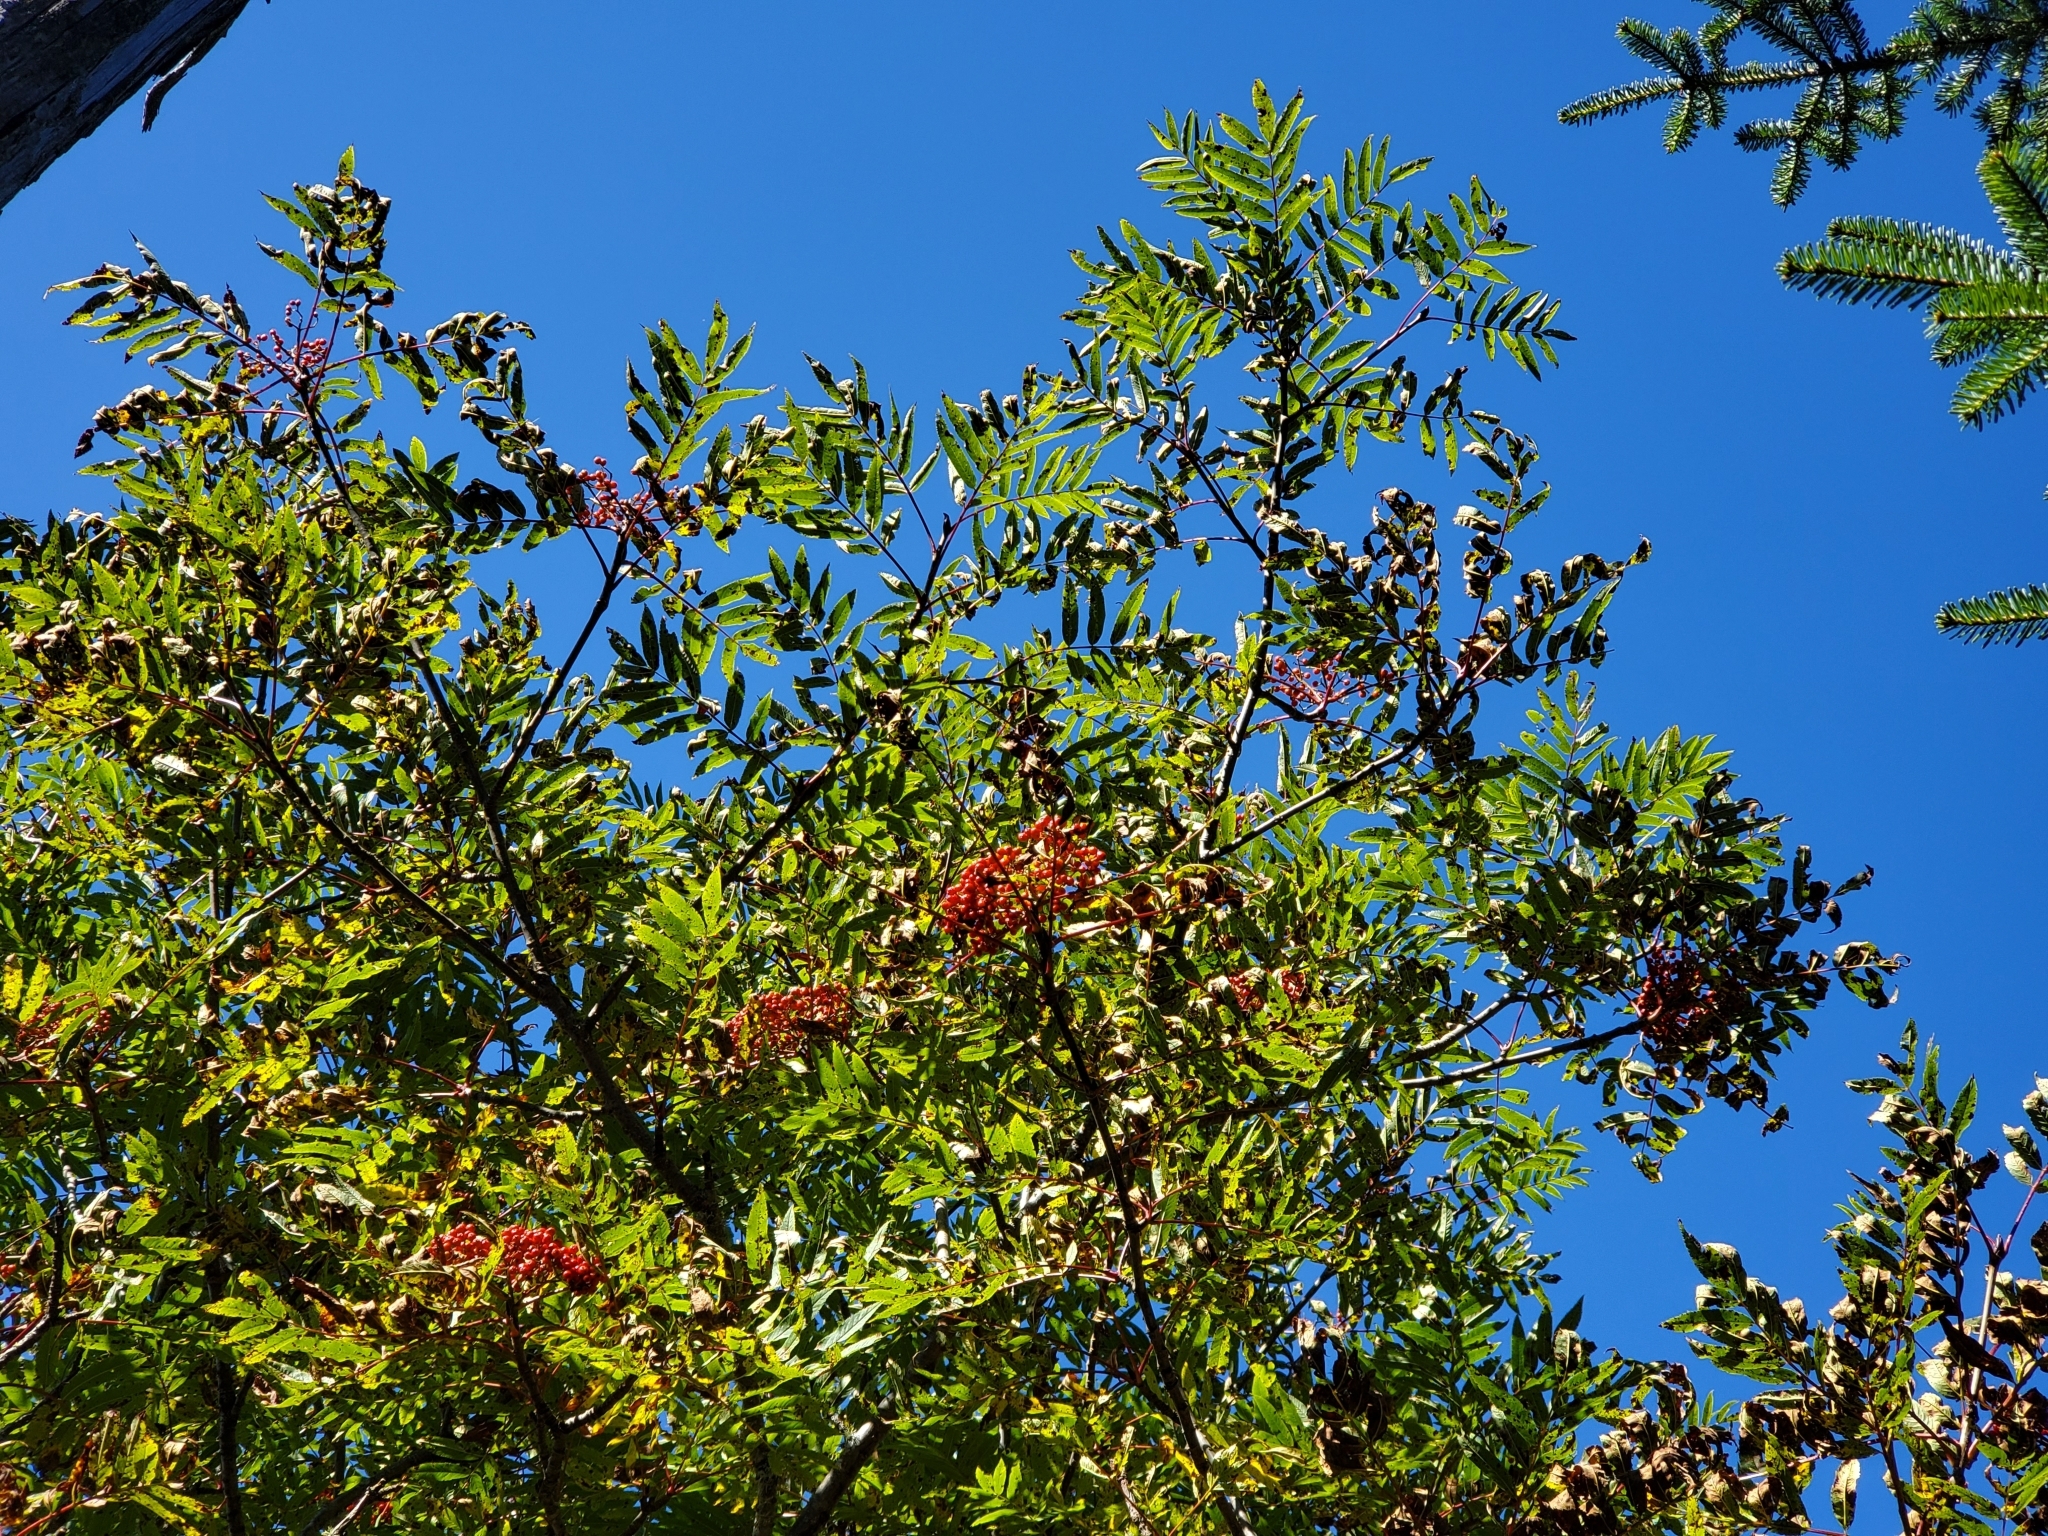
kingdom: Plantae
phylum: Tracheophyta
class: Magnoliopsida
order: Rosales
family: Rosaceae
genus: Sorbus
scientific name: Sorbus americana
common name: American mountain-ash
